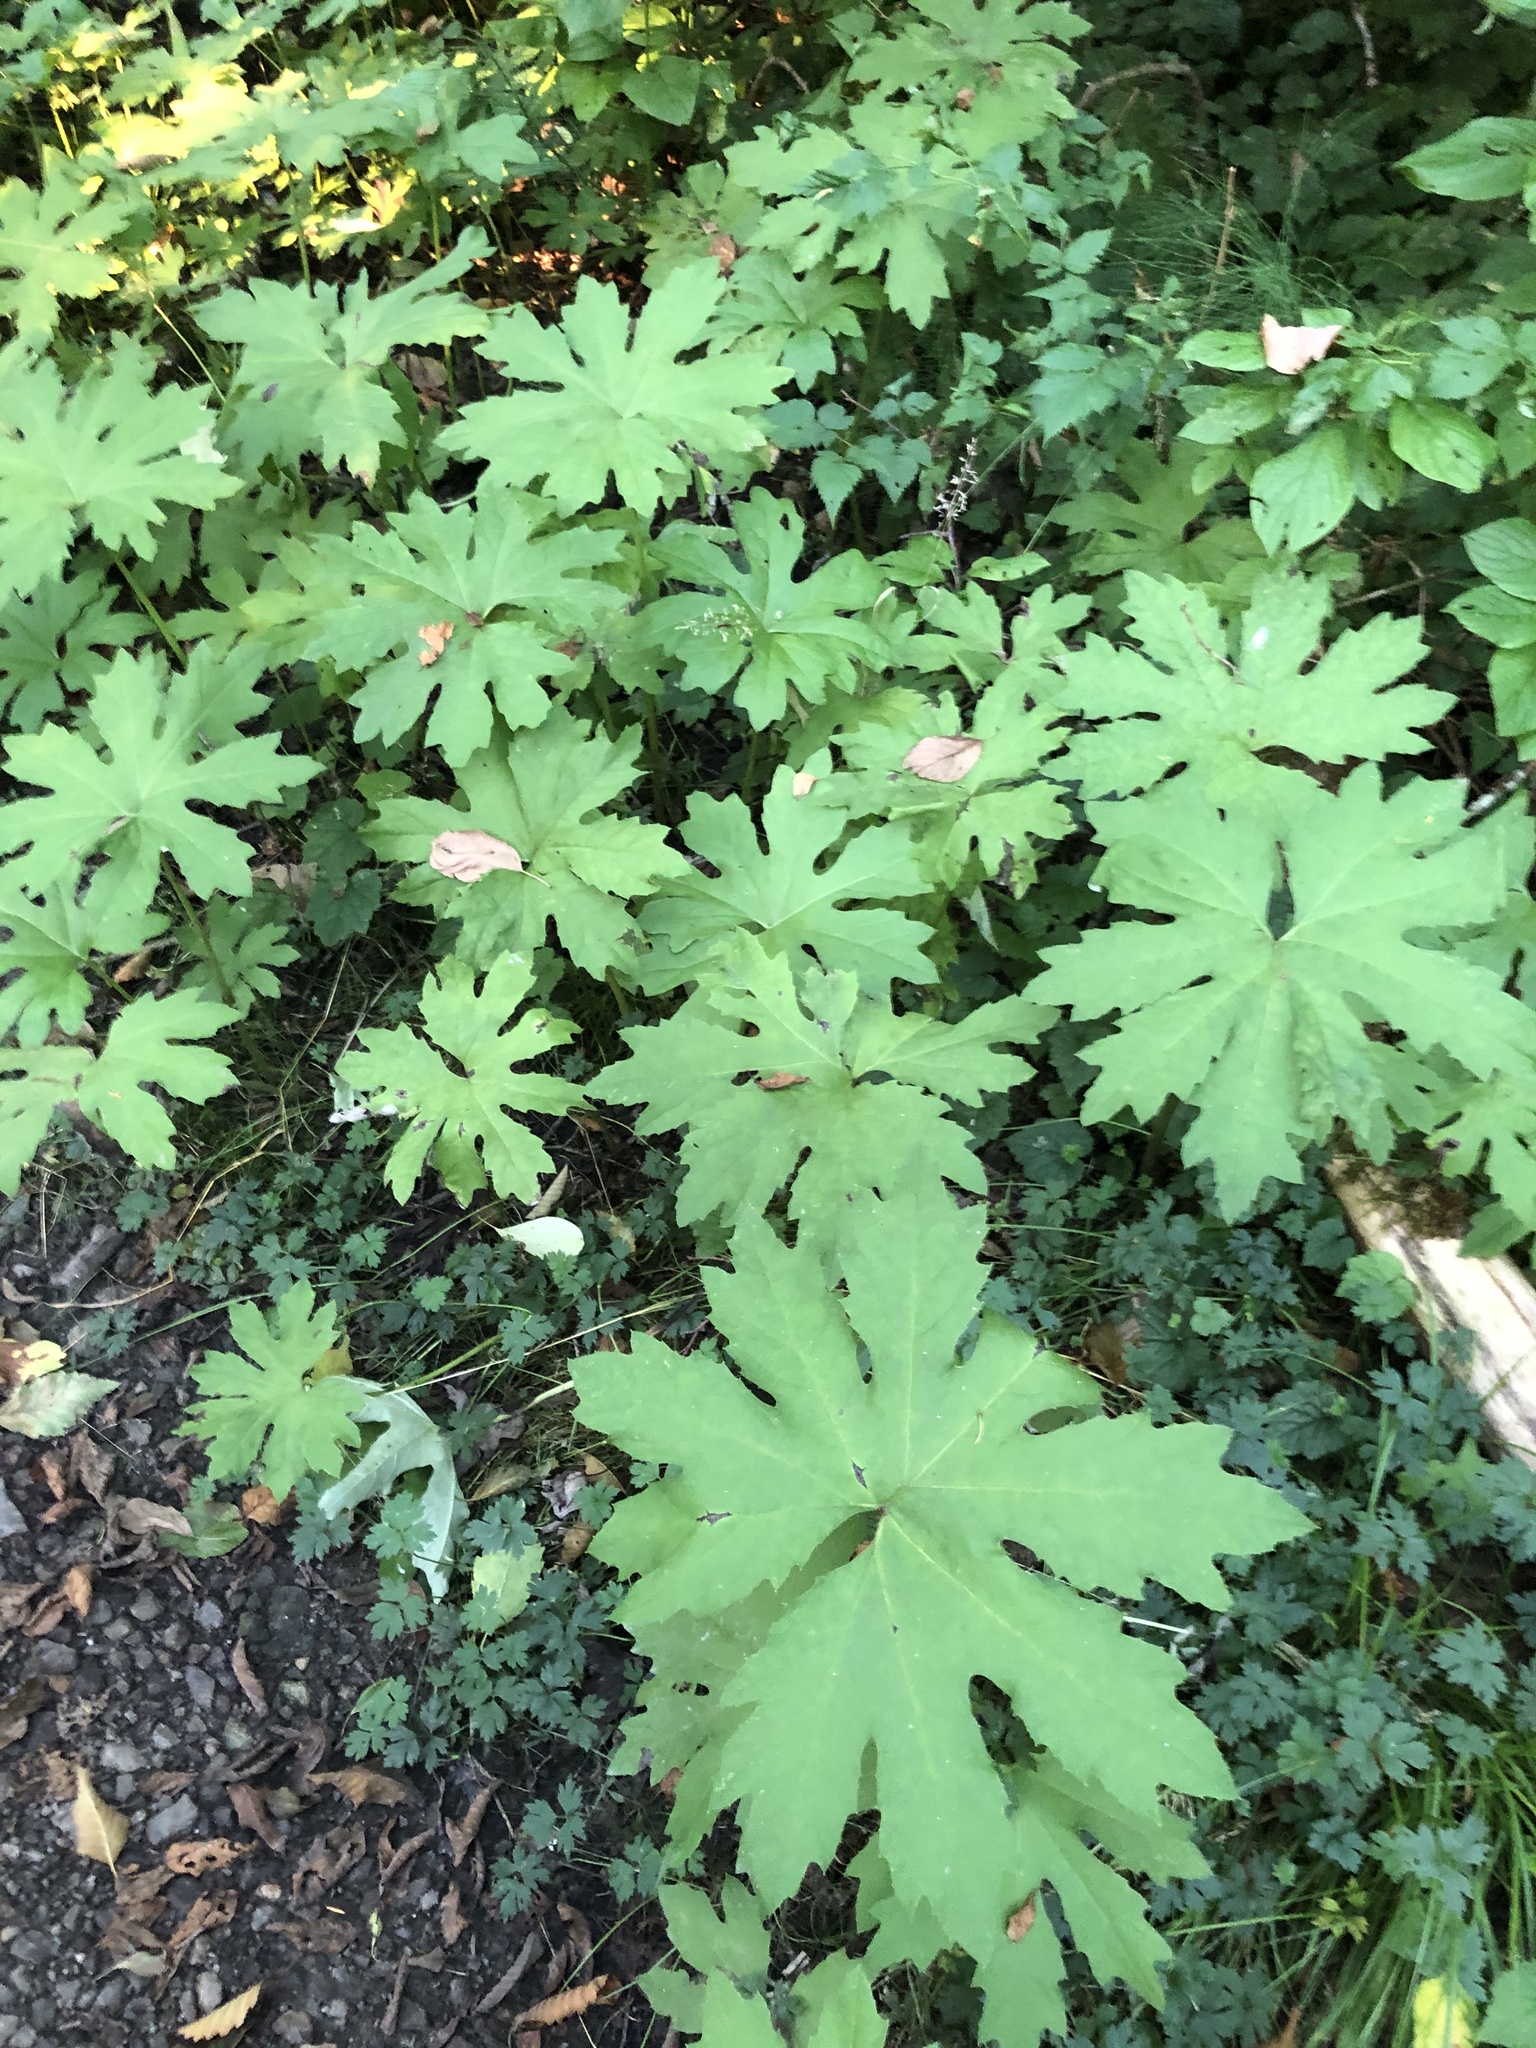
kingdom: Plantae
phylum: Tracheophyta
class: Magnoliopsida
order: Asterales
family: Asteraceae
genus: Petasites
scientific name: Petasites frigidus
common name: Arctic butterbur
